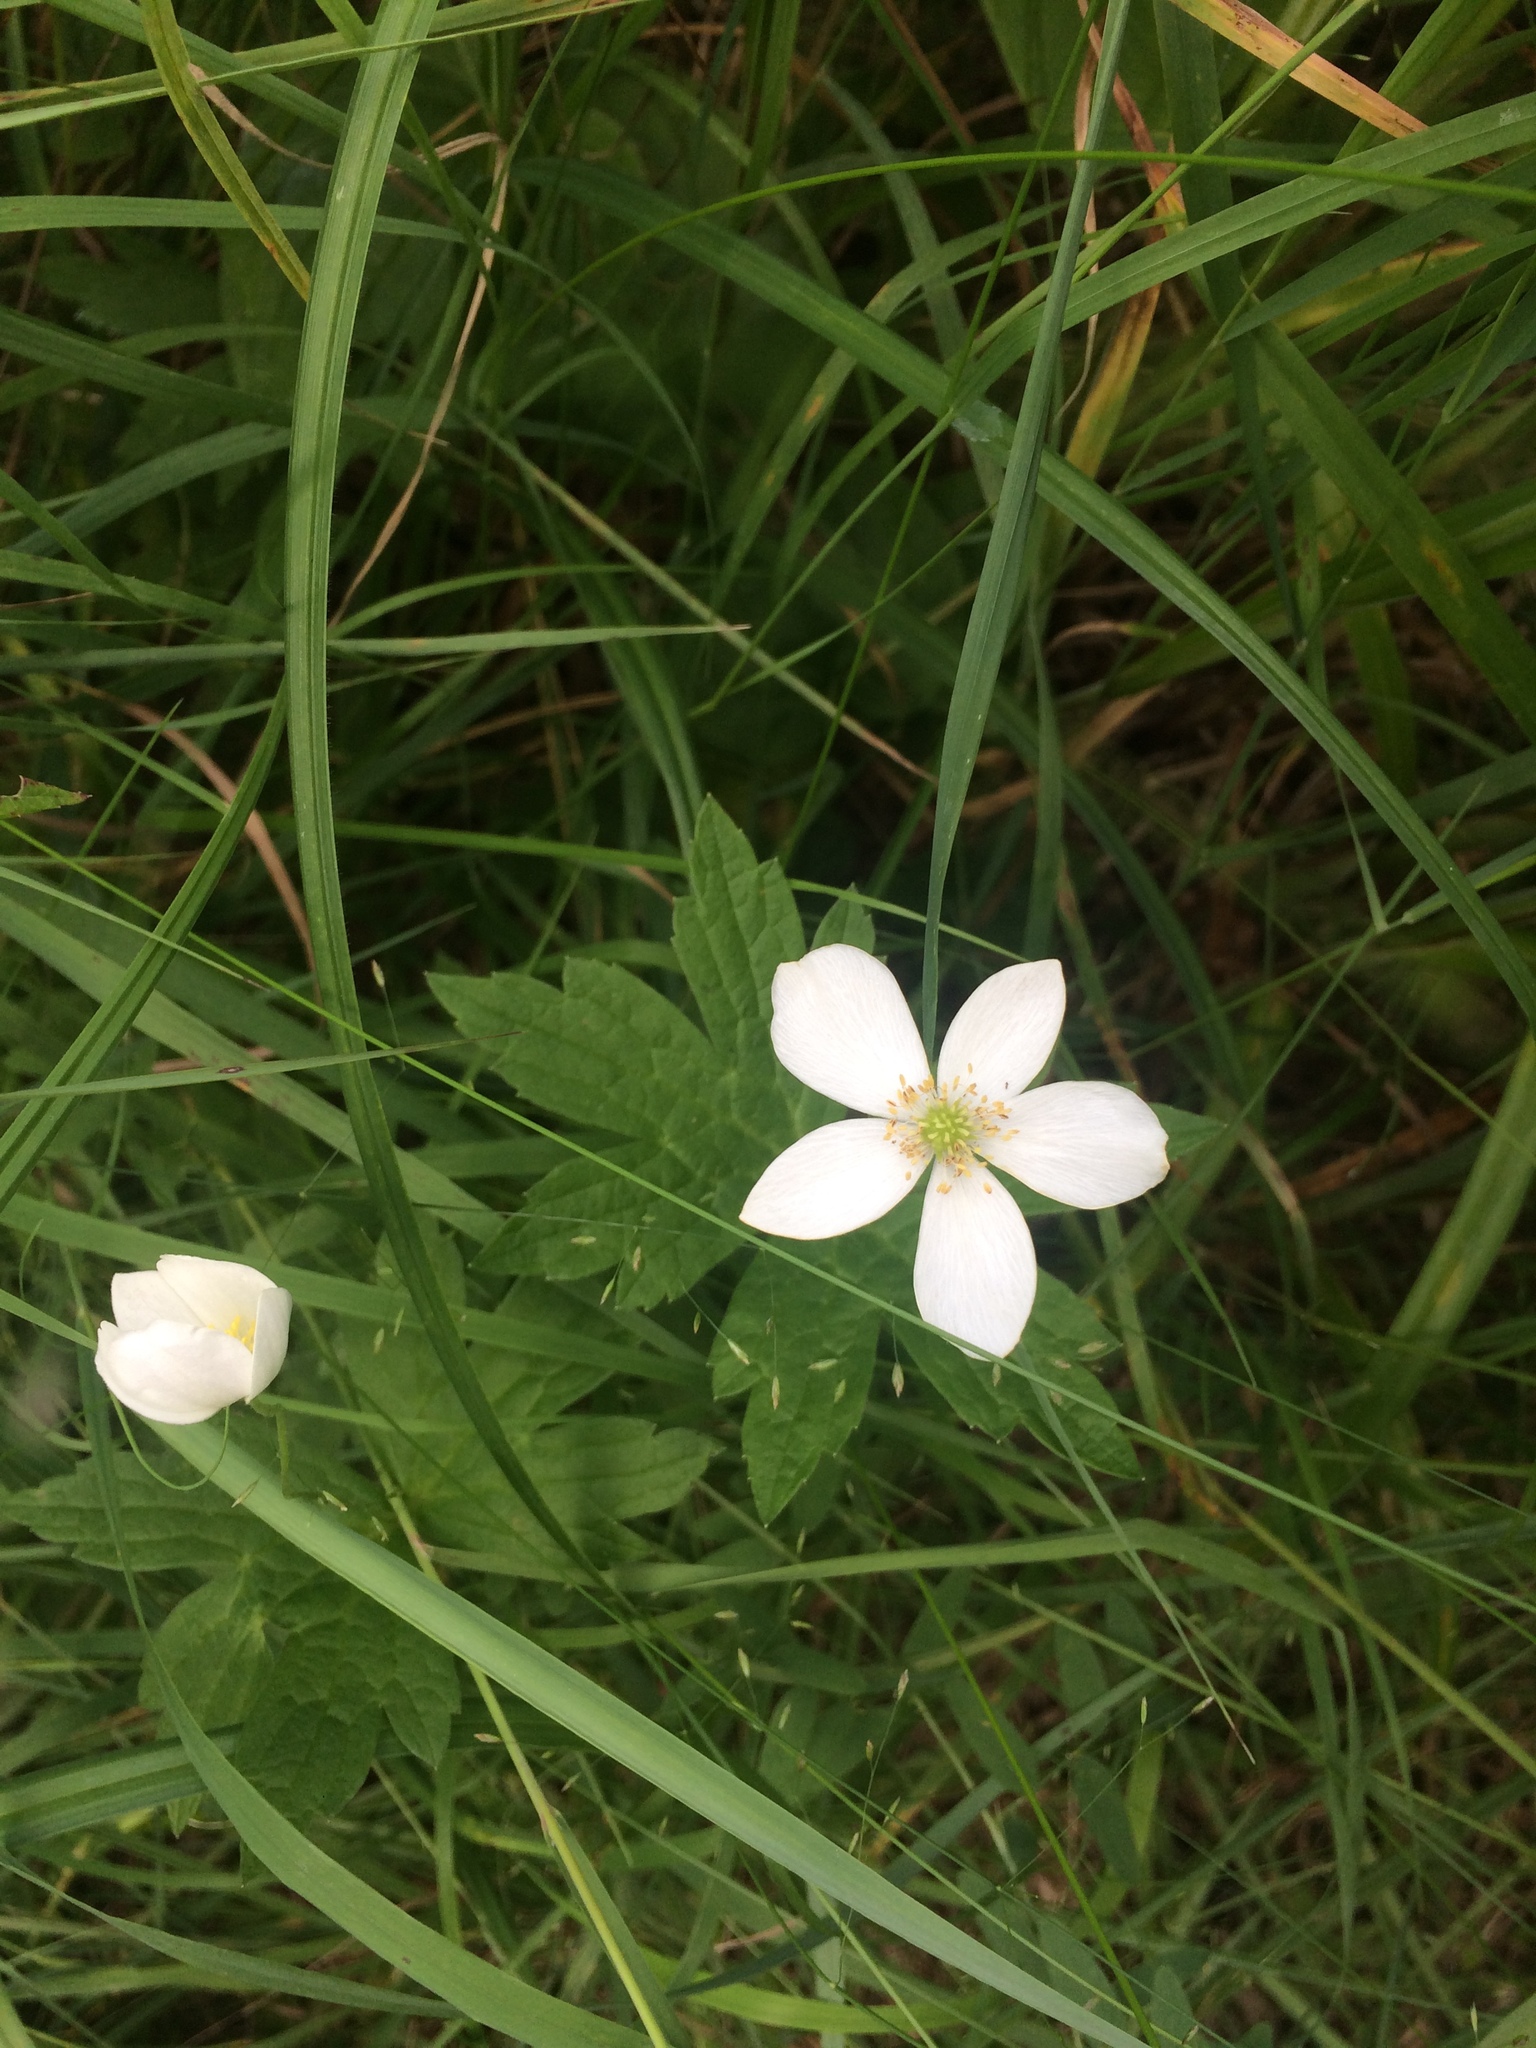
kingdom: Plantae
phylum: Tracheophyta
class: Magnoliopsida
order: Ranunculales
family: Ranunculaceae
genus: Anemonastrum
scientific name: Anemonastrum canadense
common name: Canada anemone
